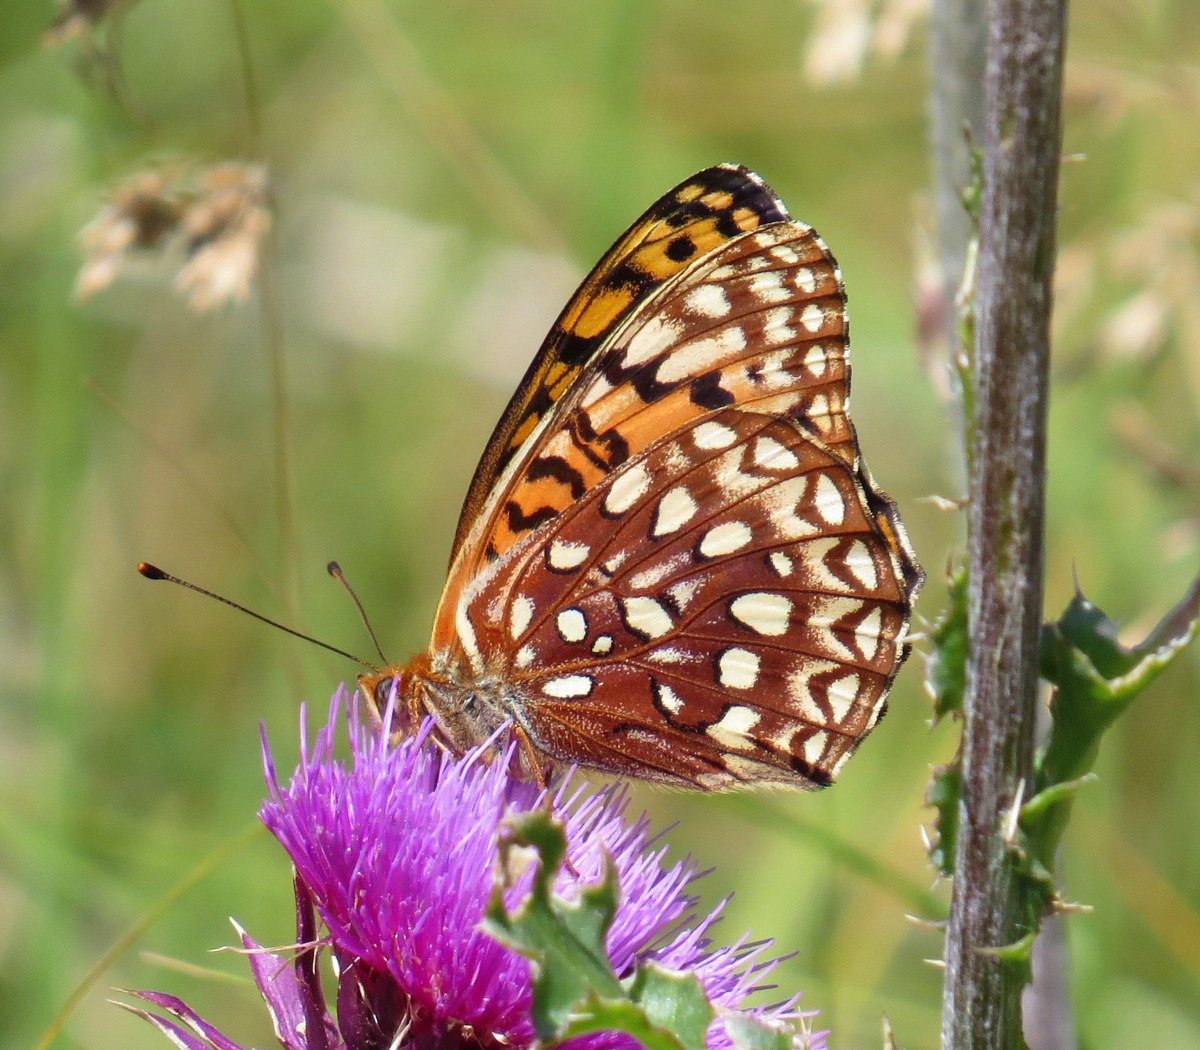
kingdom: Animalia
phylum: Arthropoda
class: Insecta
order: Lepidoptera
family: Nymphalidae
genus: Speyeria
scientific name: Speyeria atlantis
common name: Atlantis fritillary
